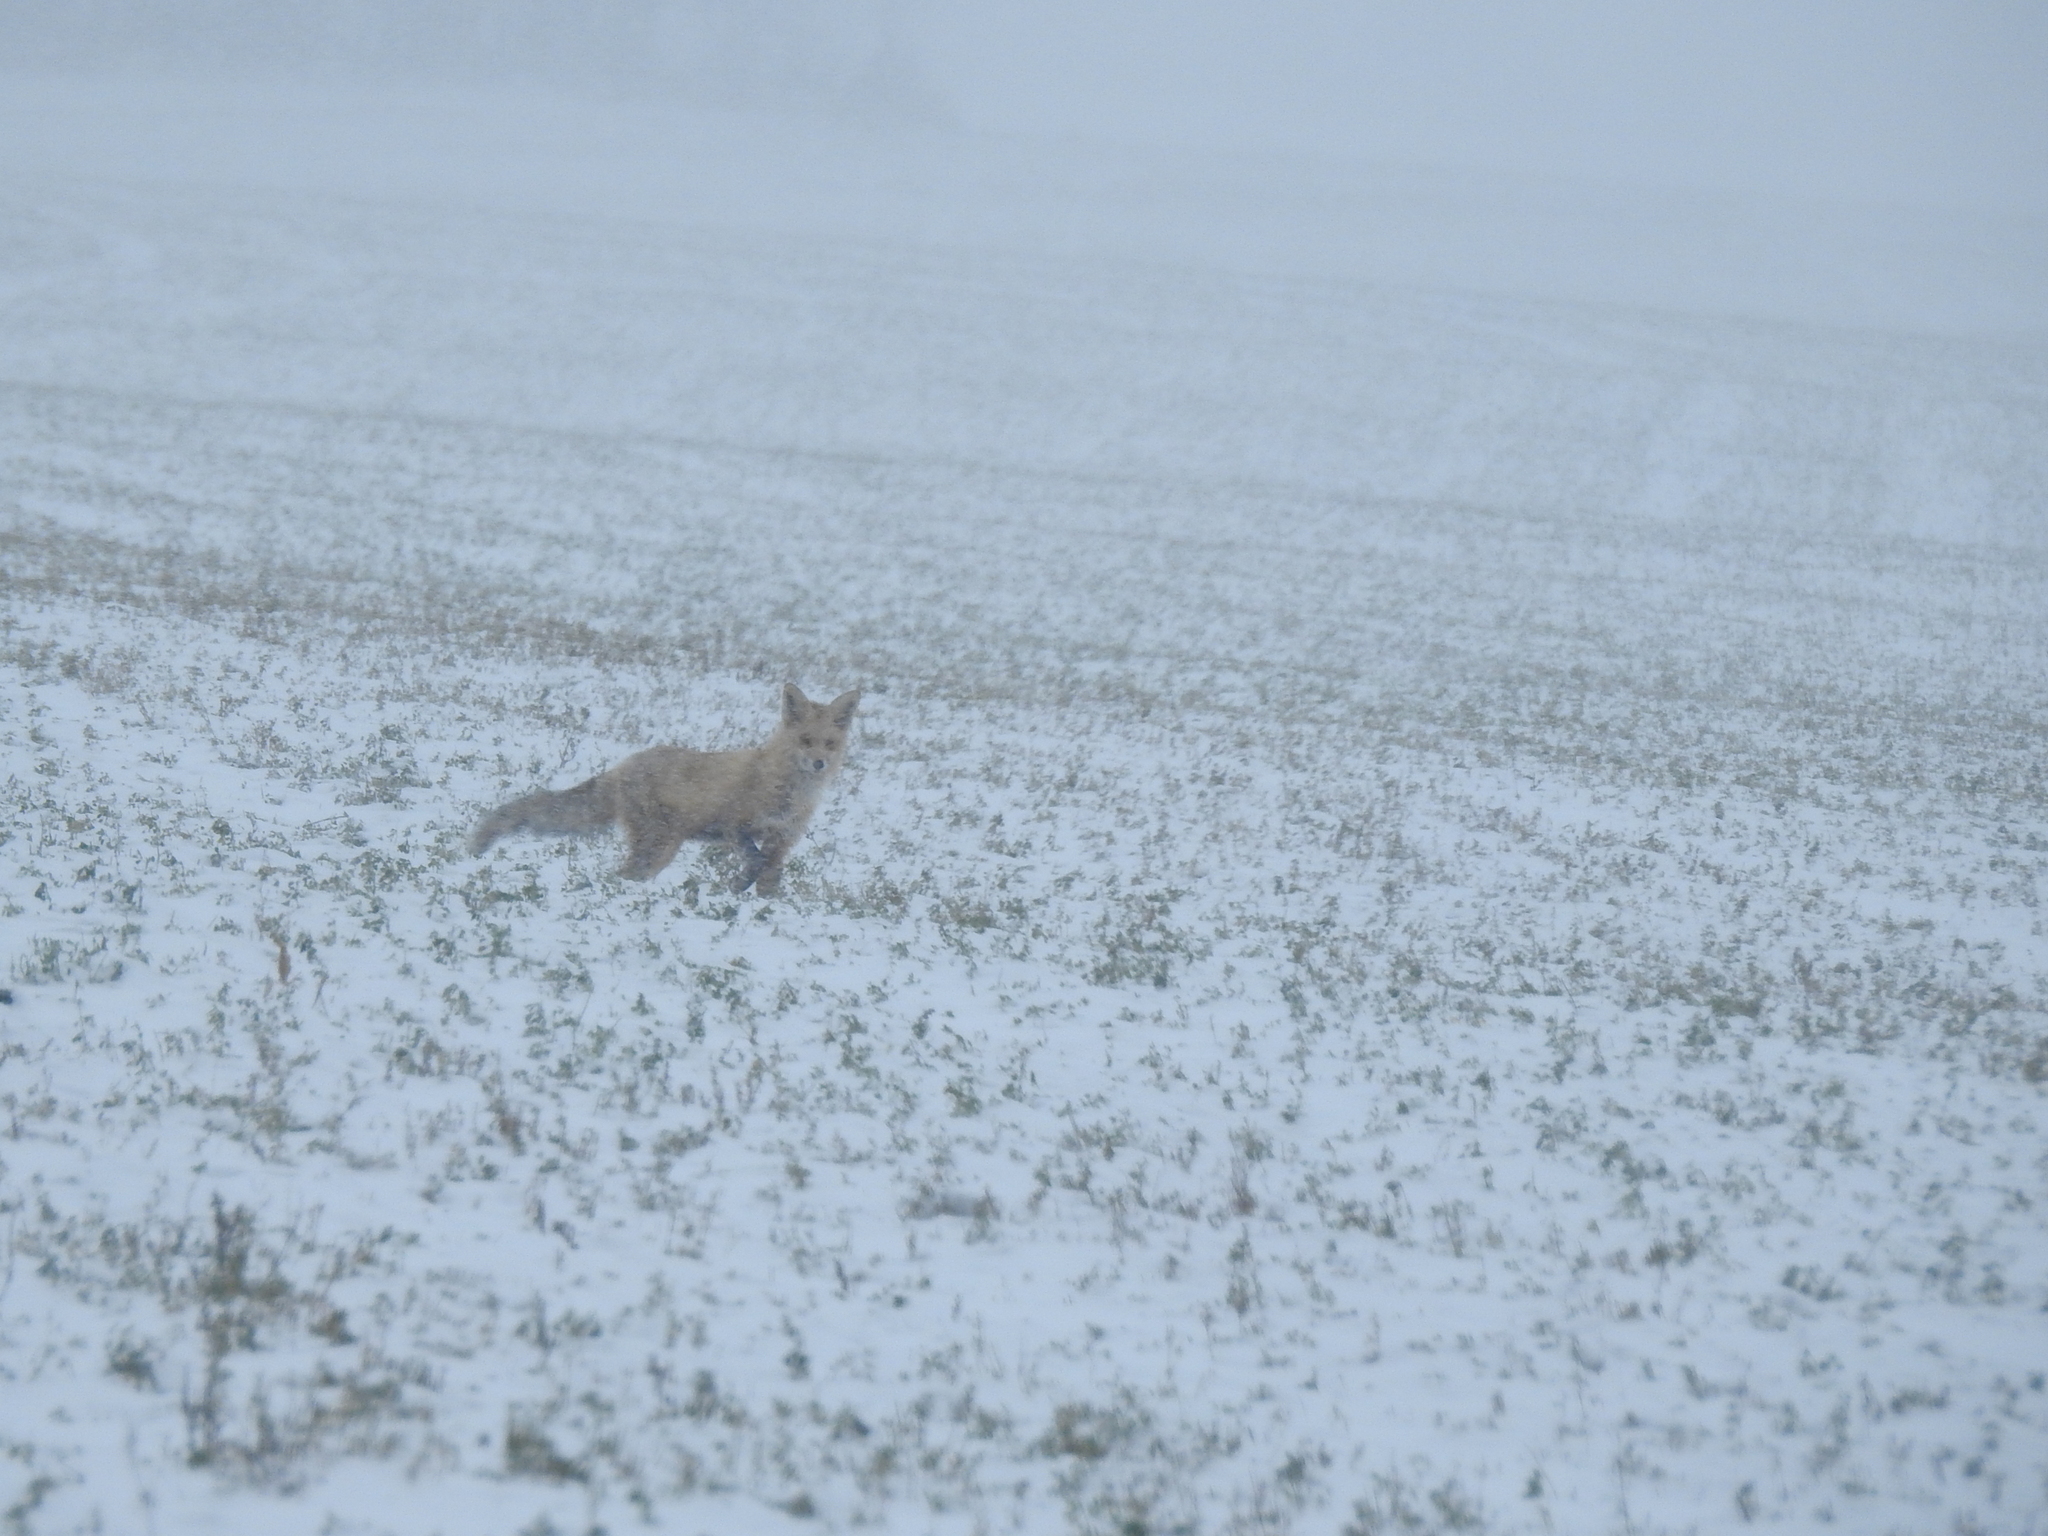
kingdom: Animalia
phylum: Chordata
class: Mammalia
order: Carnivora
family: Canidae
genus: Vulpes
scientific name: Vulpes vulpes
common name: Red fox
